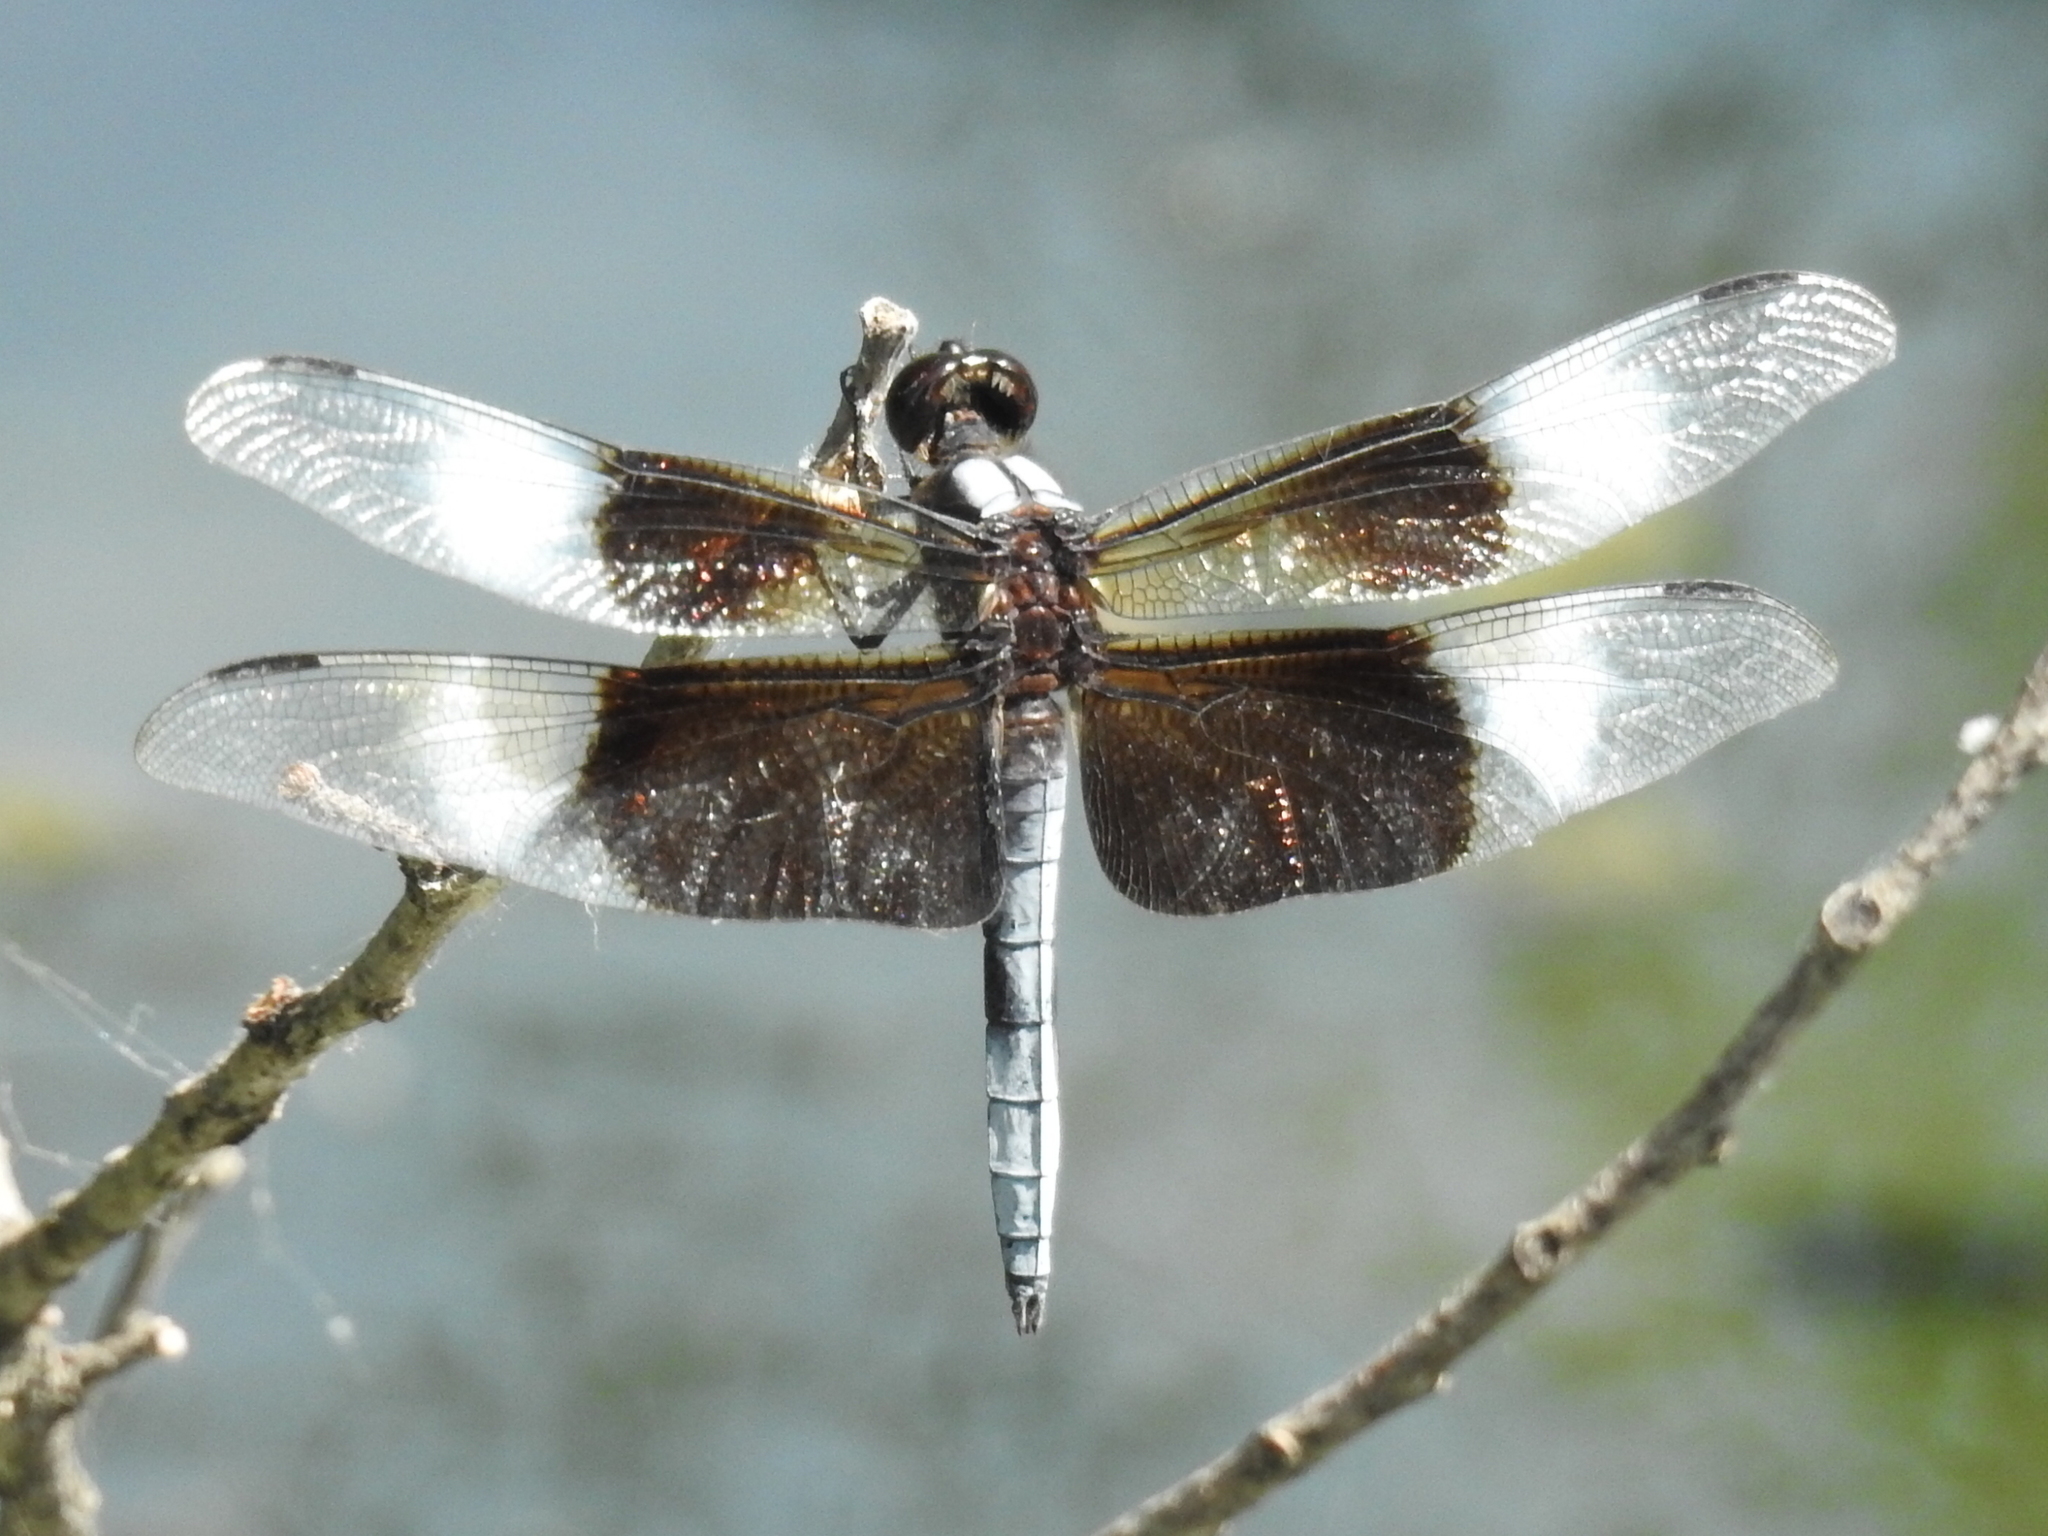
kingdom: Animalia
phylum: Arthropoda
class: Insecta
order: Odonata
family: Libellulidae
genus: Libellula
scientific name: Libellula luctuosa
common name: Widow skimmer
